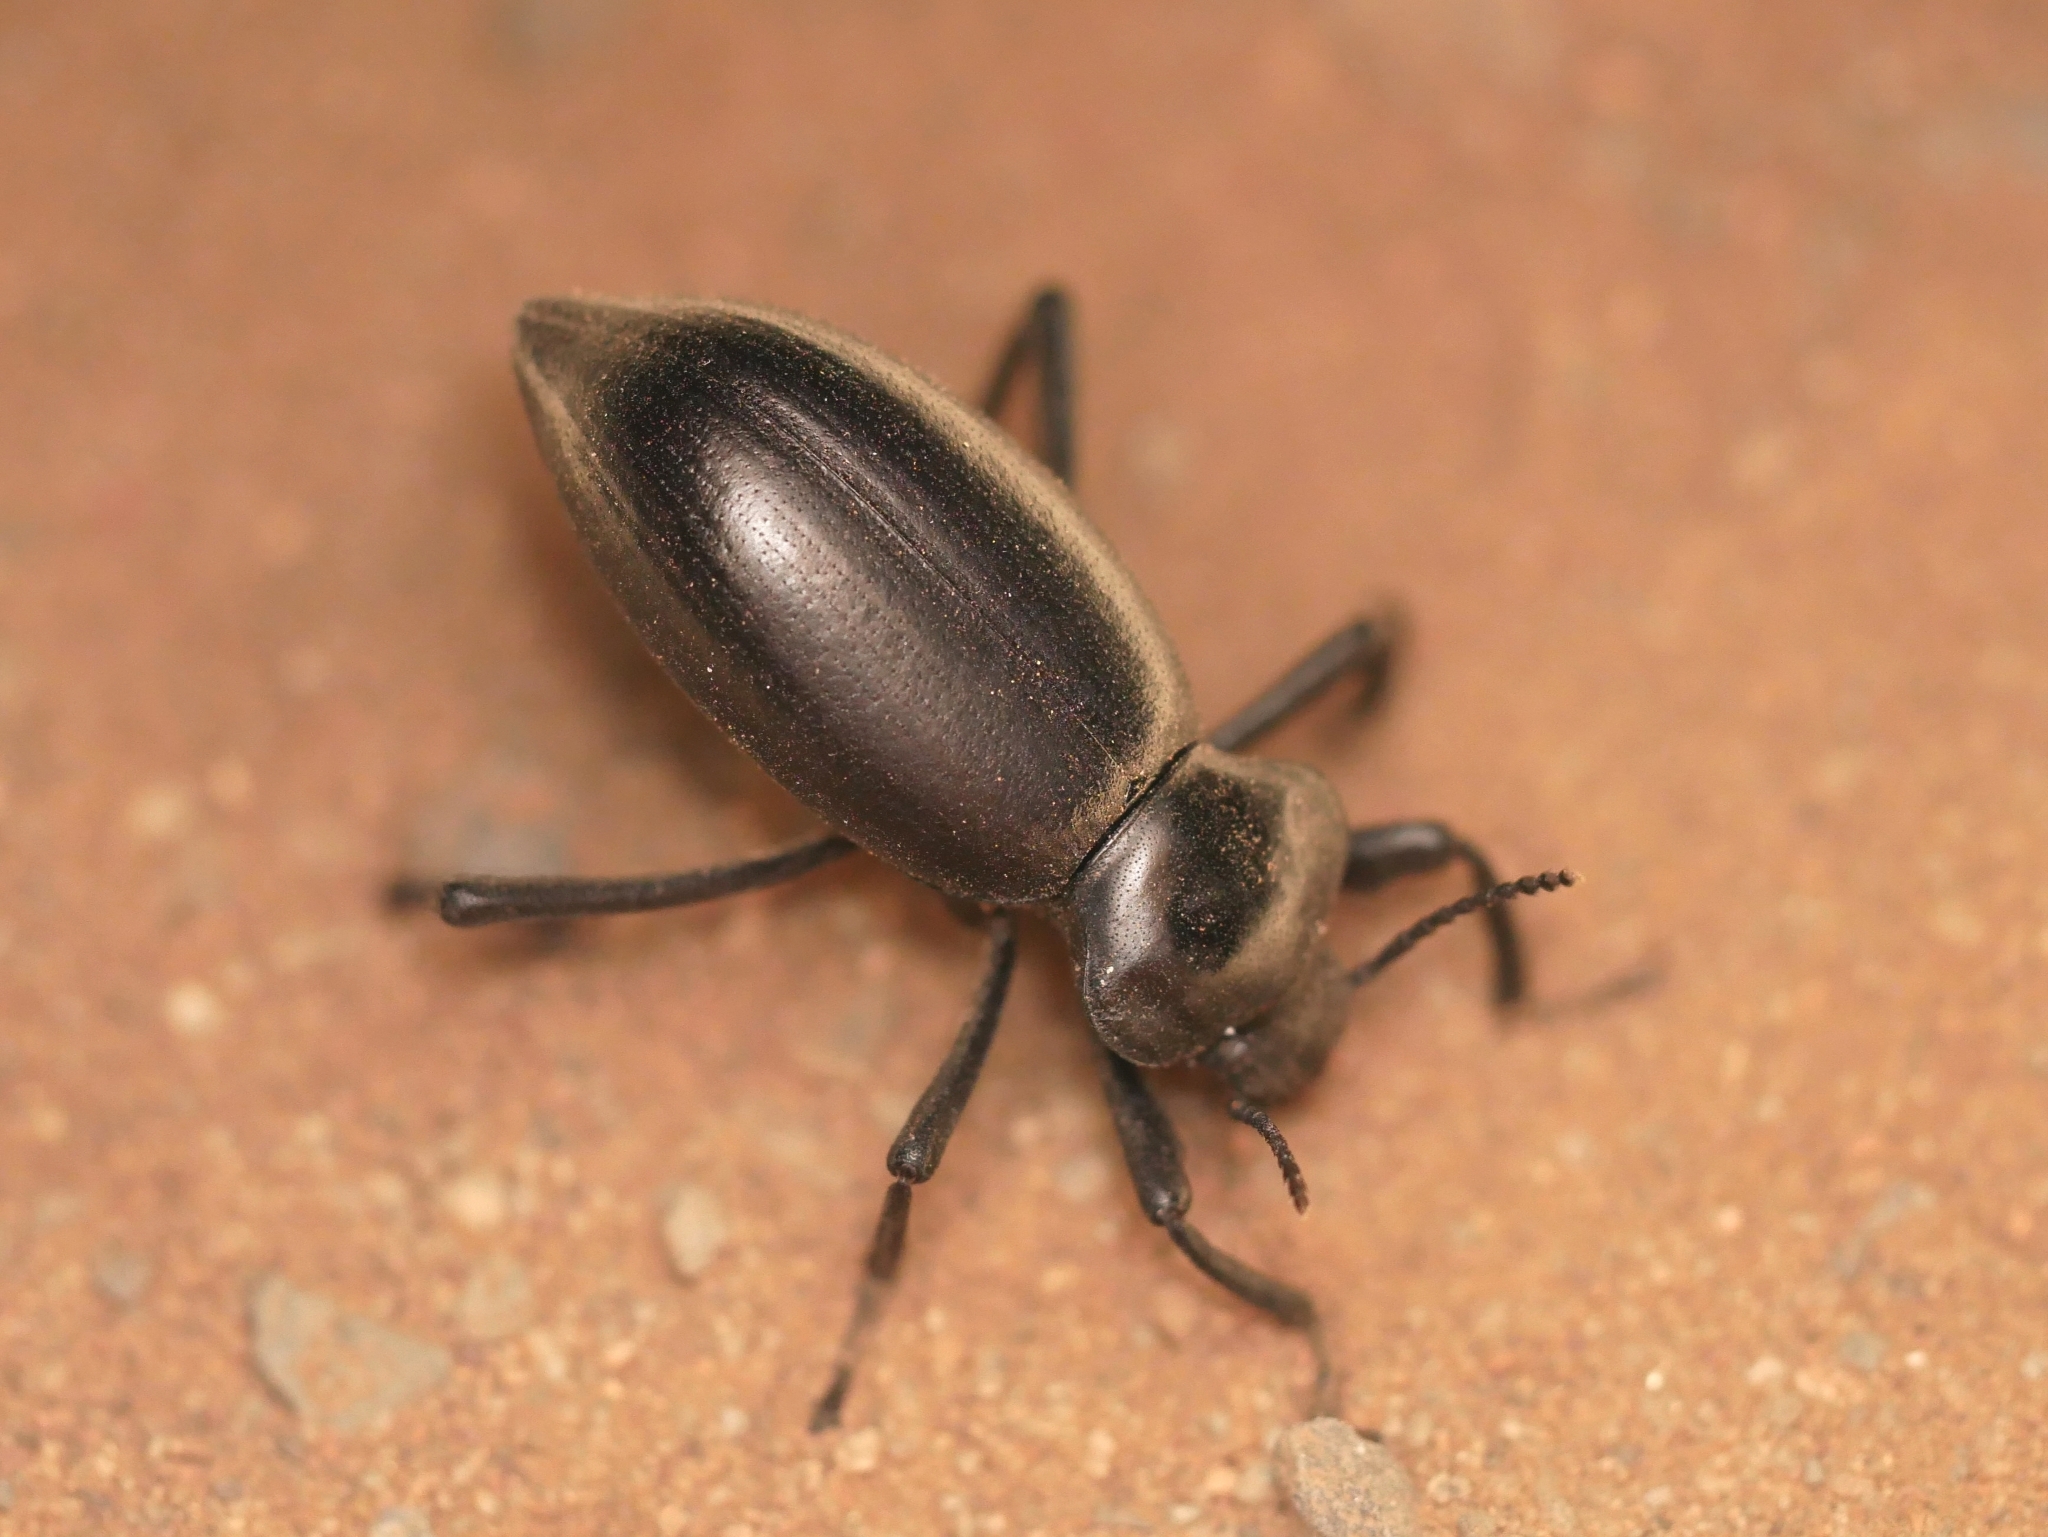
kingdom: Animalia
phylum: Arthropoda
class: Insecta
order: Coleoptera
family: Tenebrionidae
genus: Eleodes
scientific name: Eleodes acuticauda
